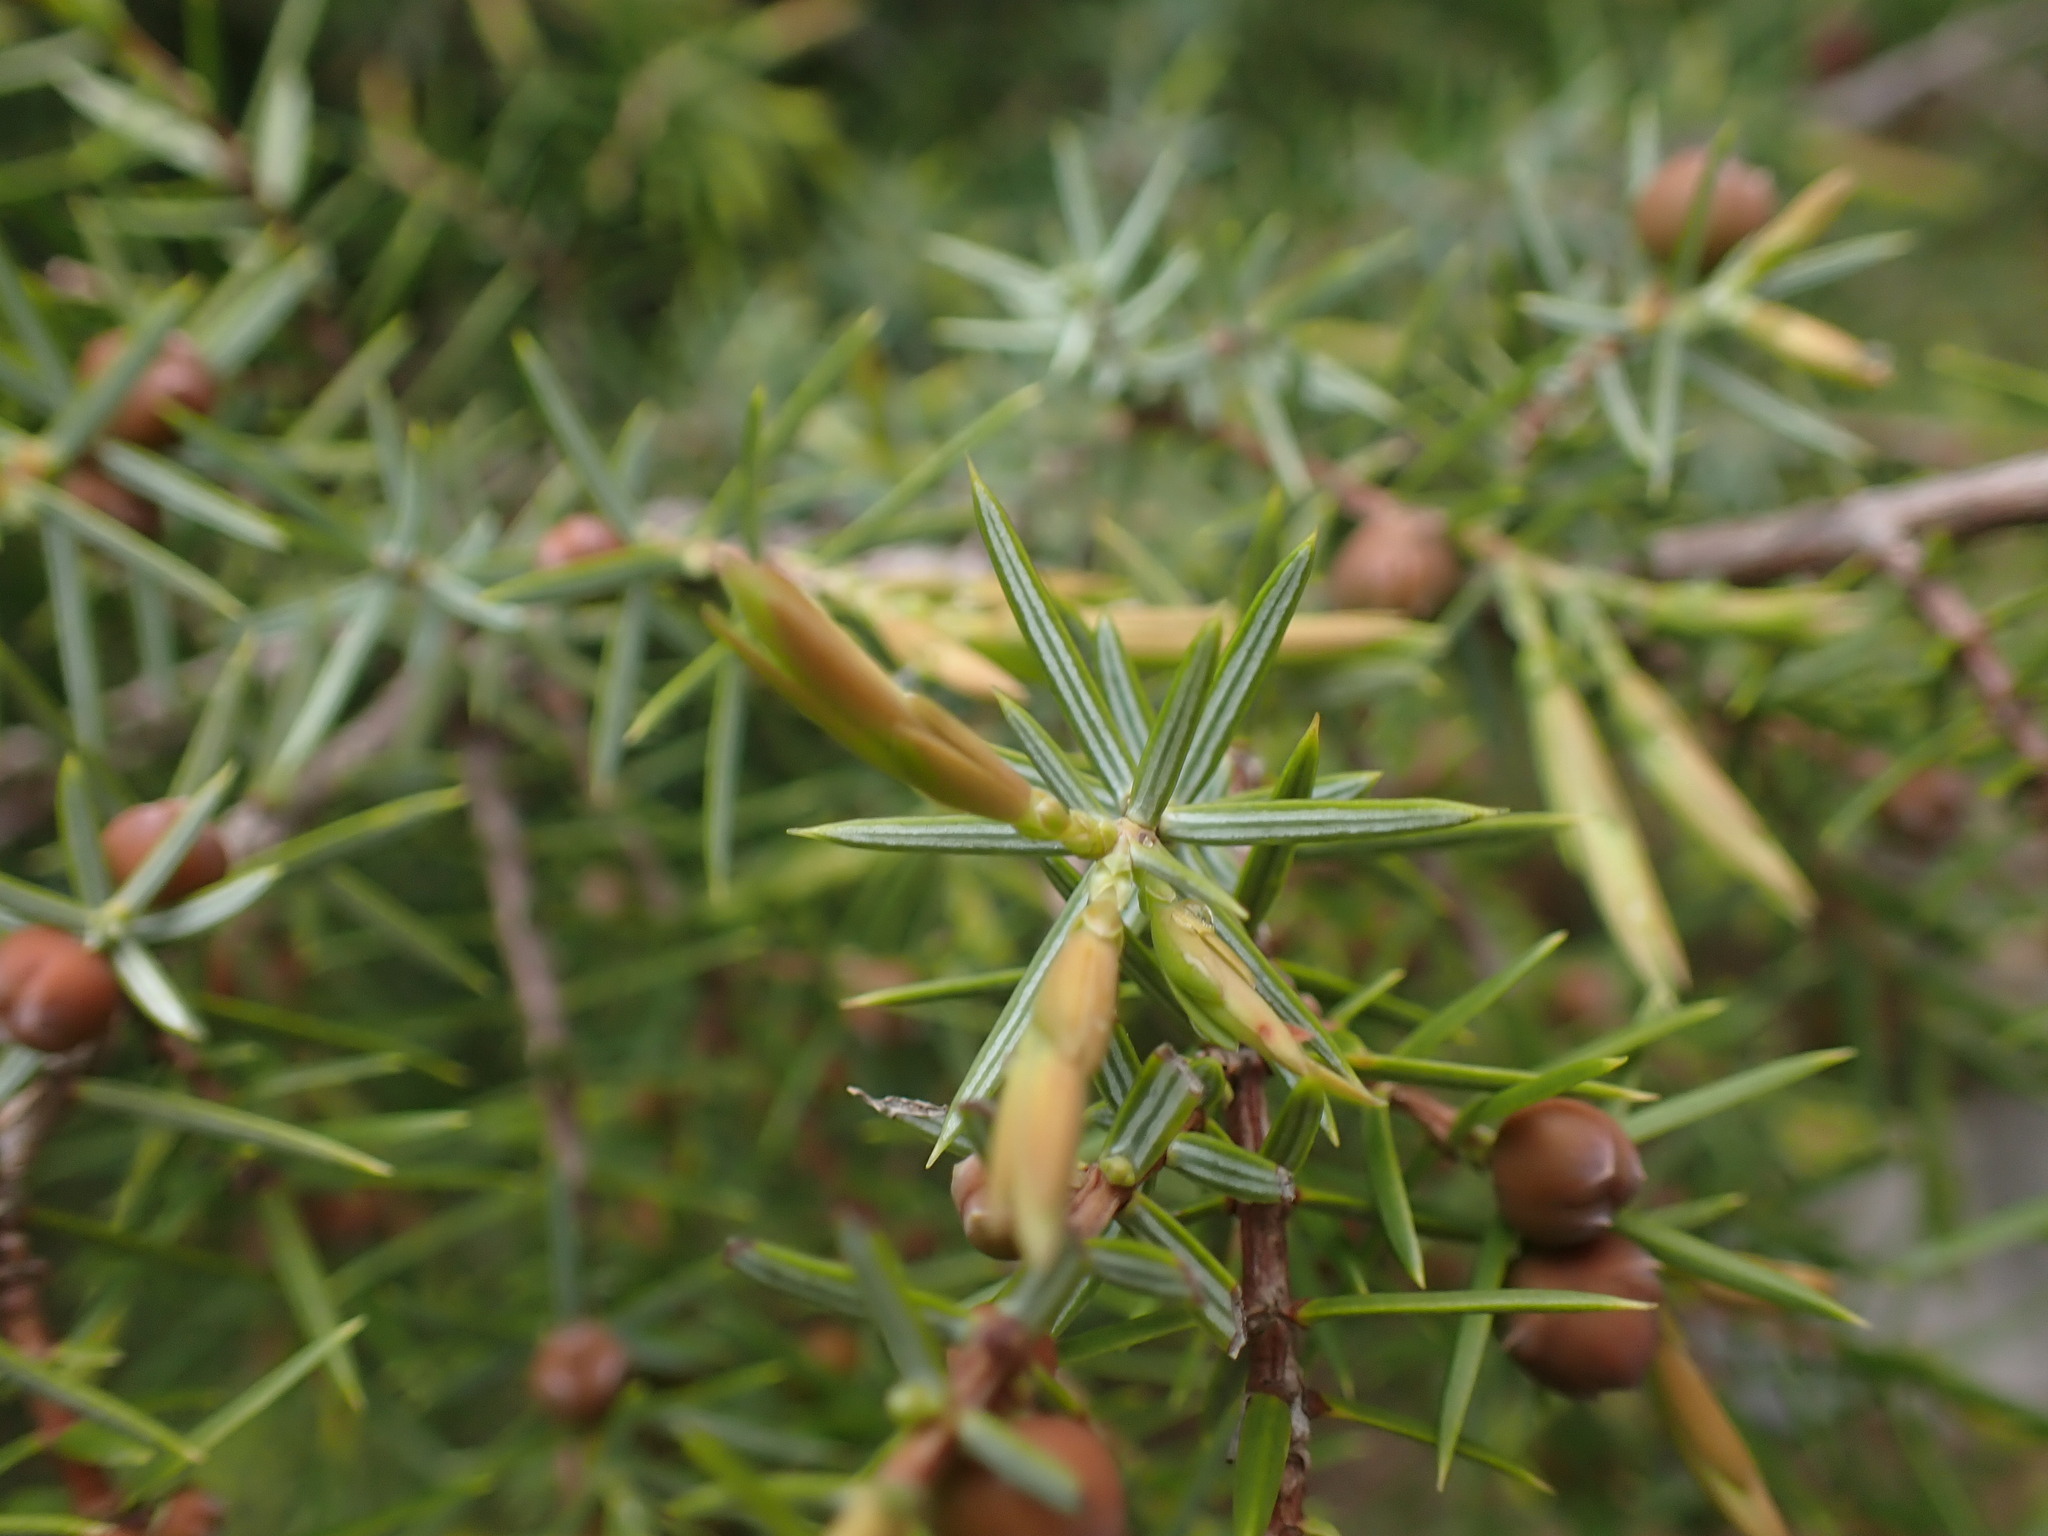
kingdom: Plantae
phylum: Tracheophyta
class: Pinopsida
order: Pinales
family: Cupressaceae
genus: Juniperus
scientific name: Juniperus oxycedrus
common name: Prickly juniper
